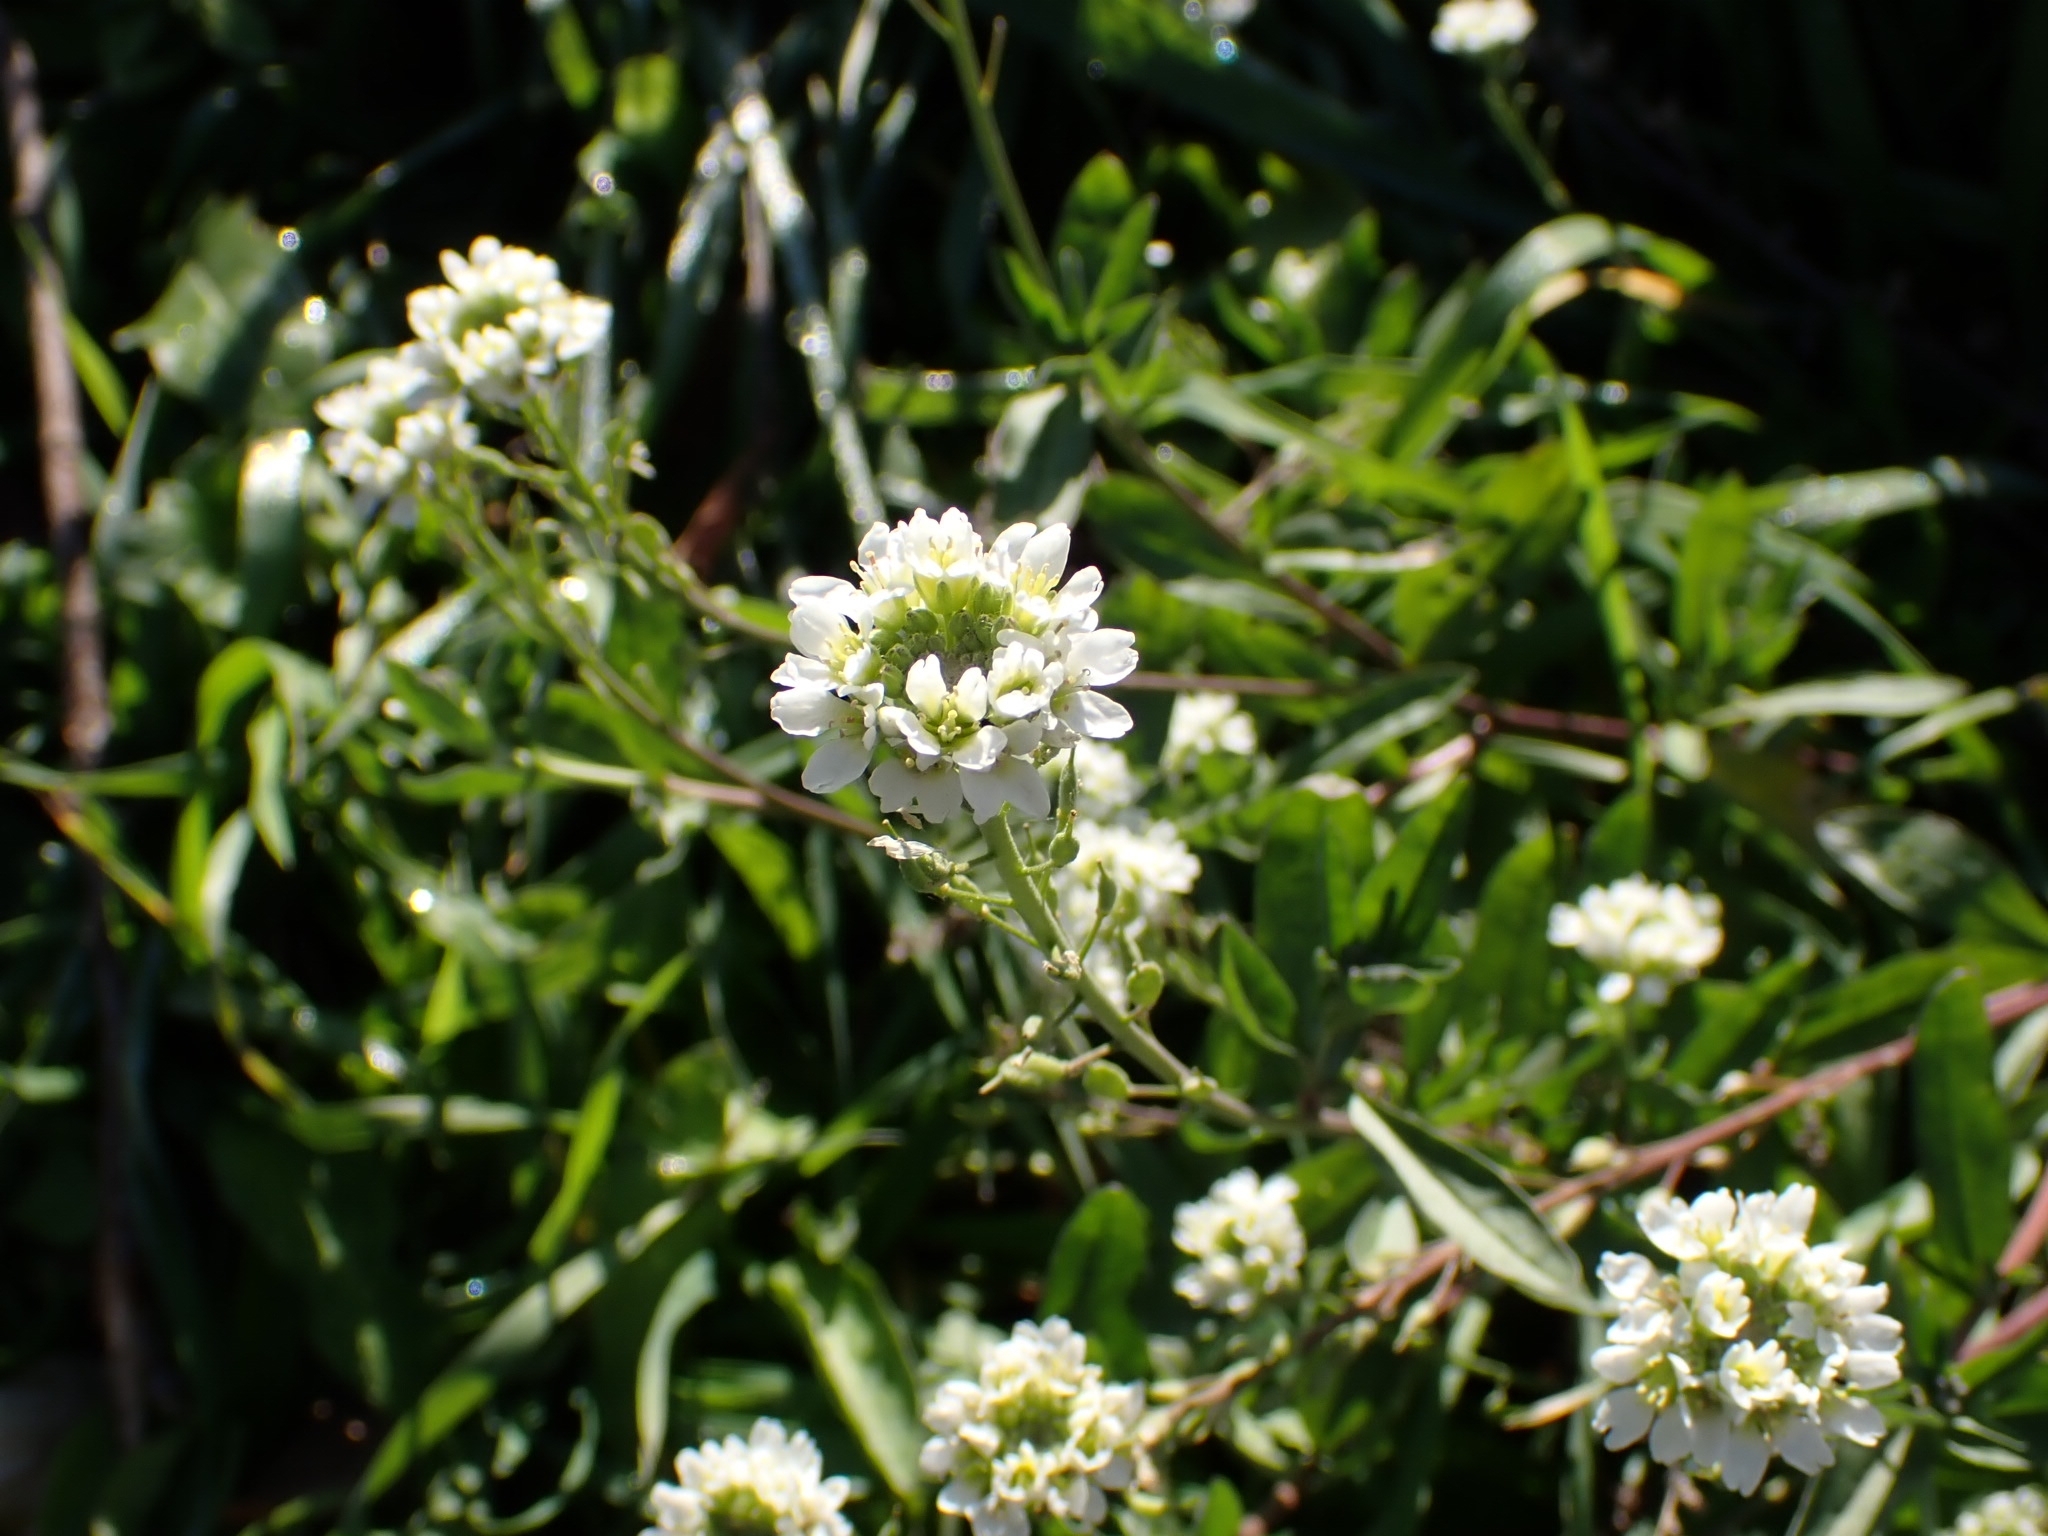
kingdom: Plantae
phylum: Tracheophyta
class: Magnoliopsida
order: Brassicales
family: Brassicaceae
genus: Berteroa
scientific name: Berteroa incana
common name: Hoary alison
